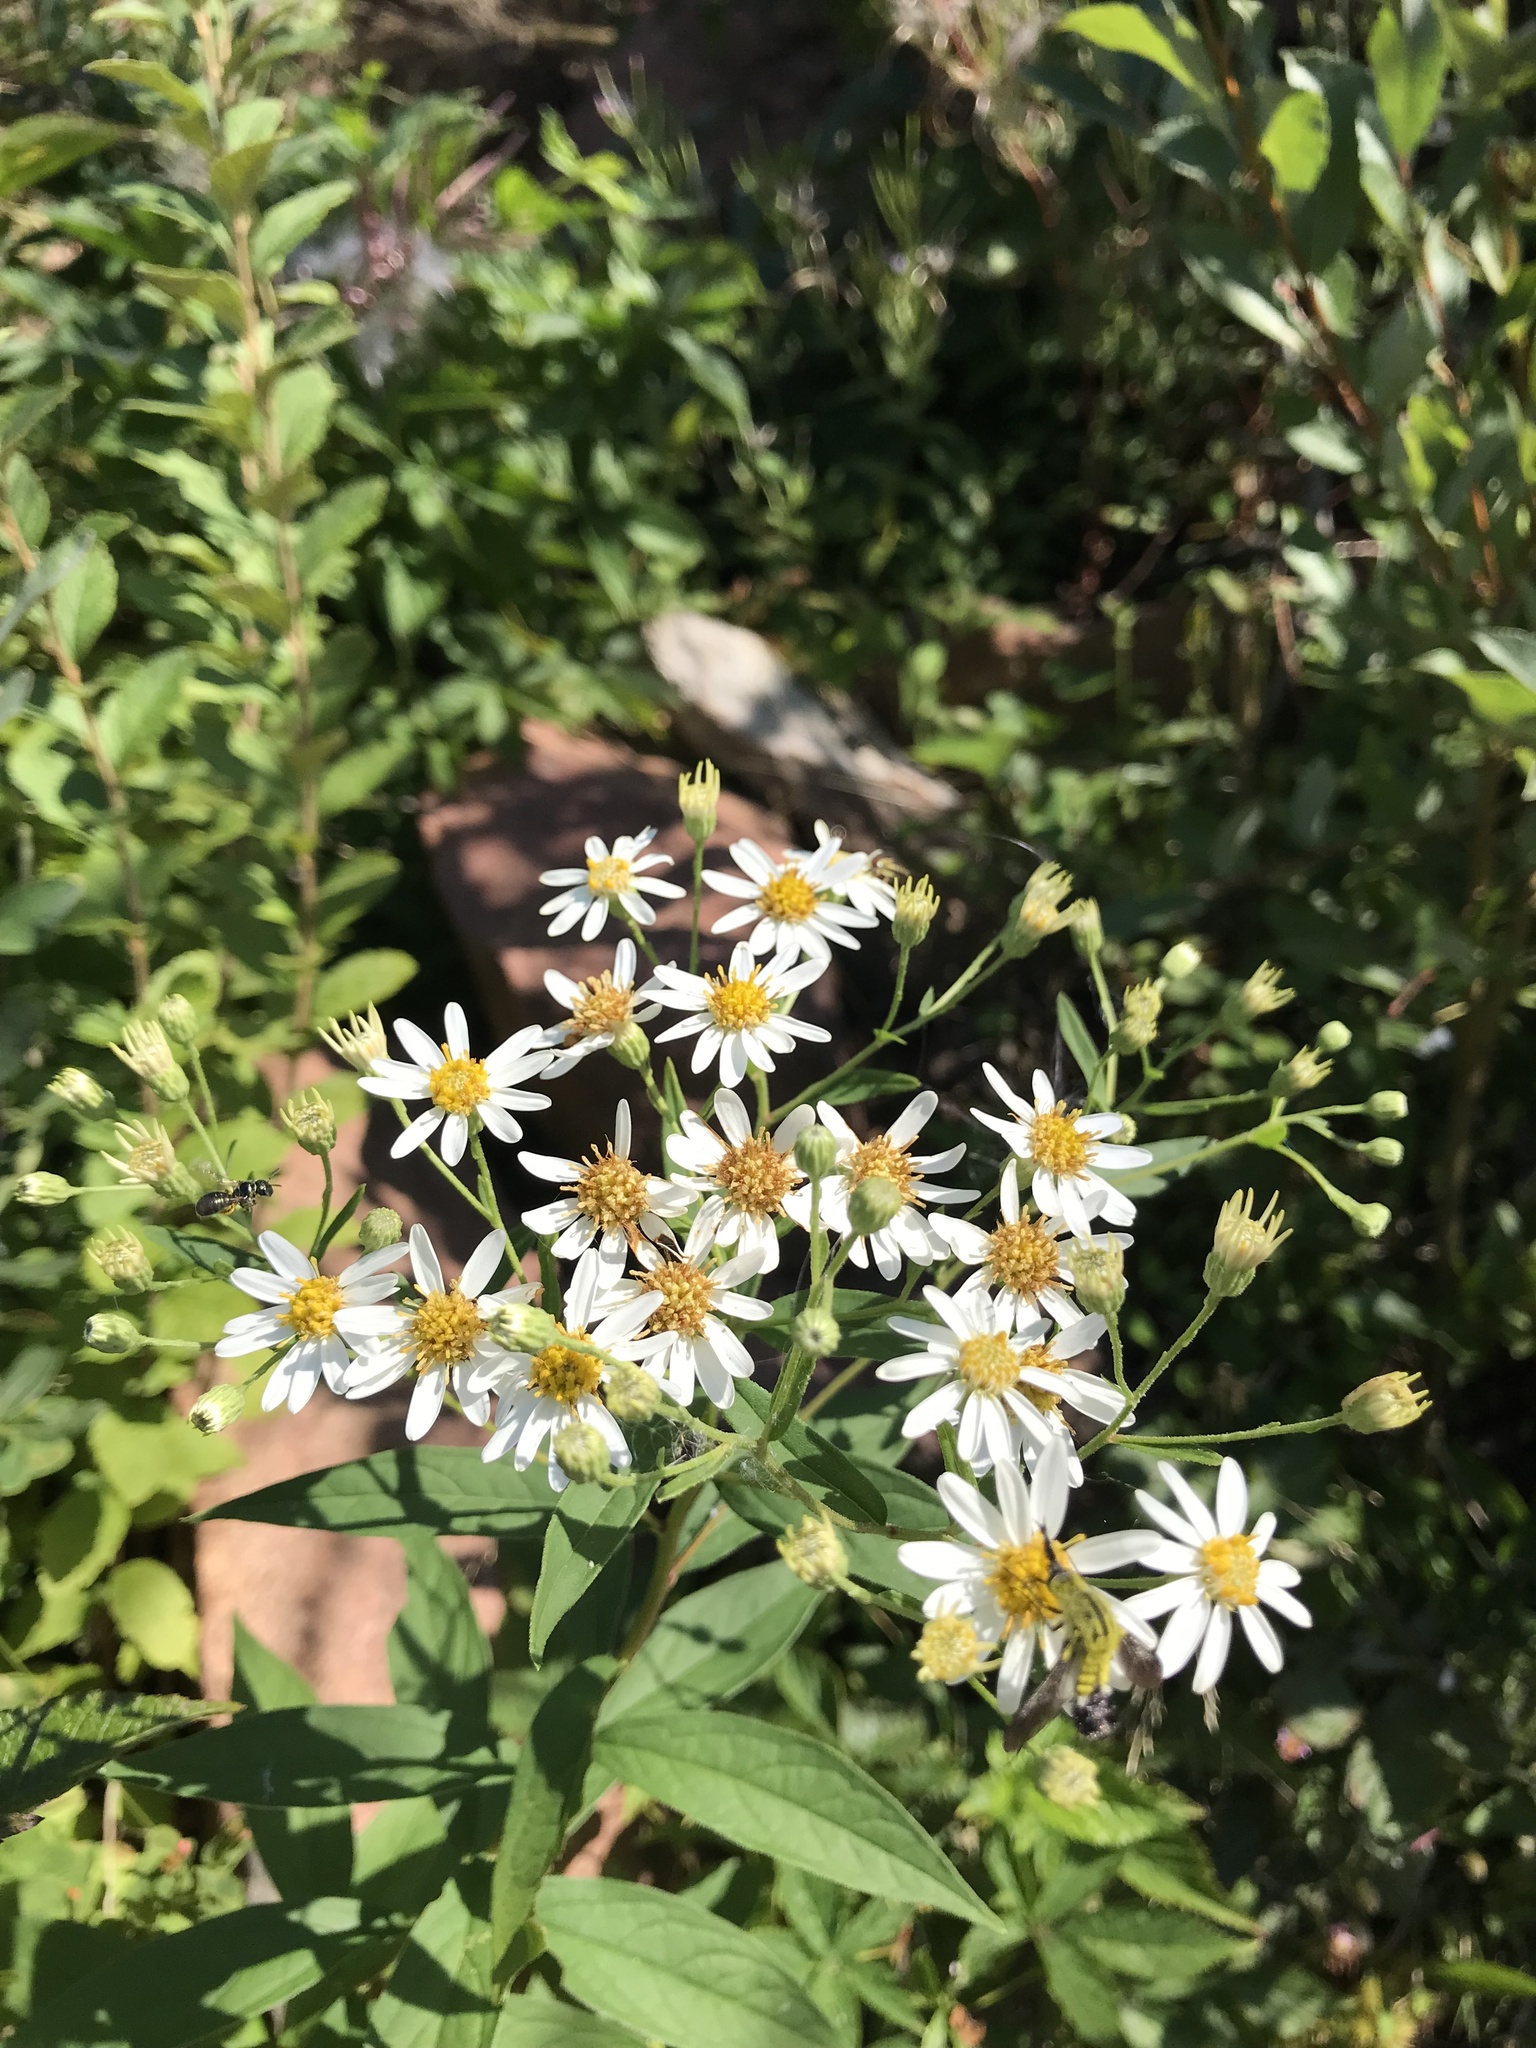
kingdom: Plantae
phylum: Tracheophyta
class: Magnoliopsida
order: Asterales
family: Asteraceae
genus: Doellingeria
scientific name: Doellingeria umbellata
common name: Flat-top white aster
